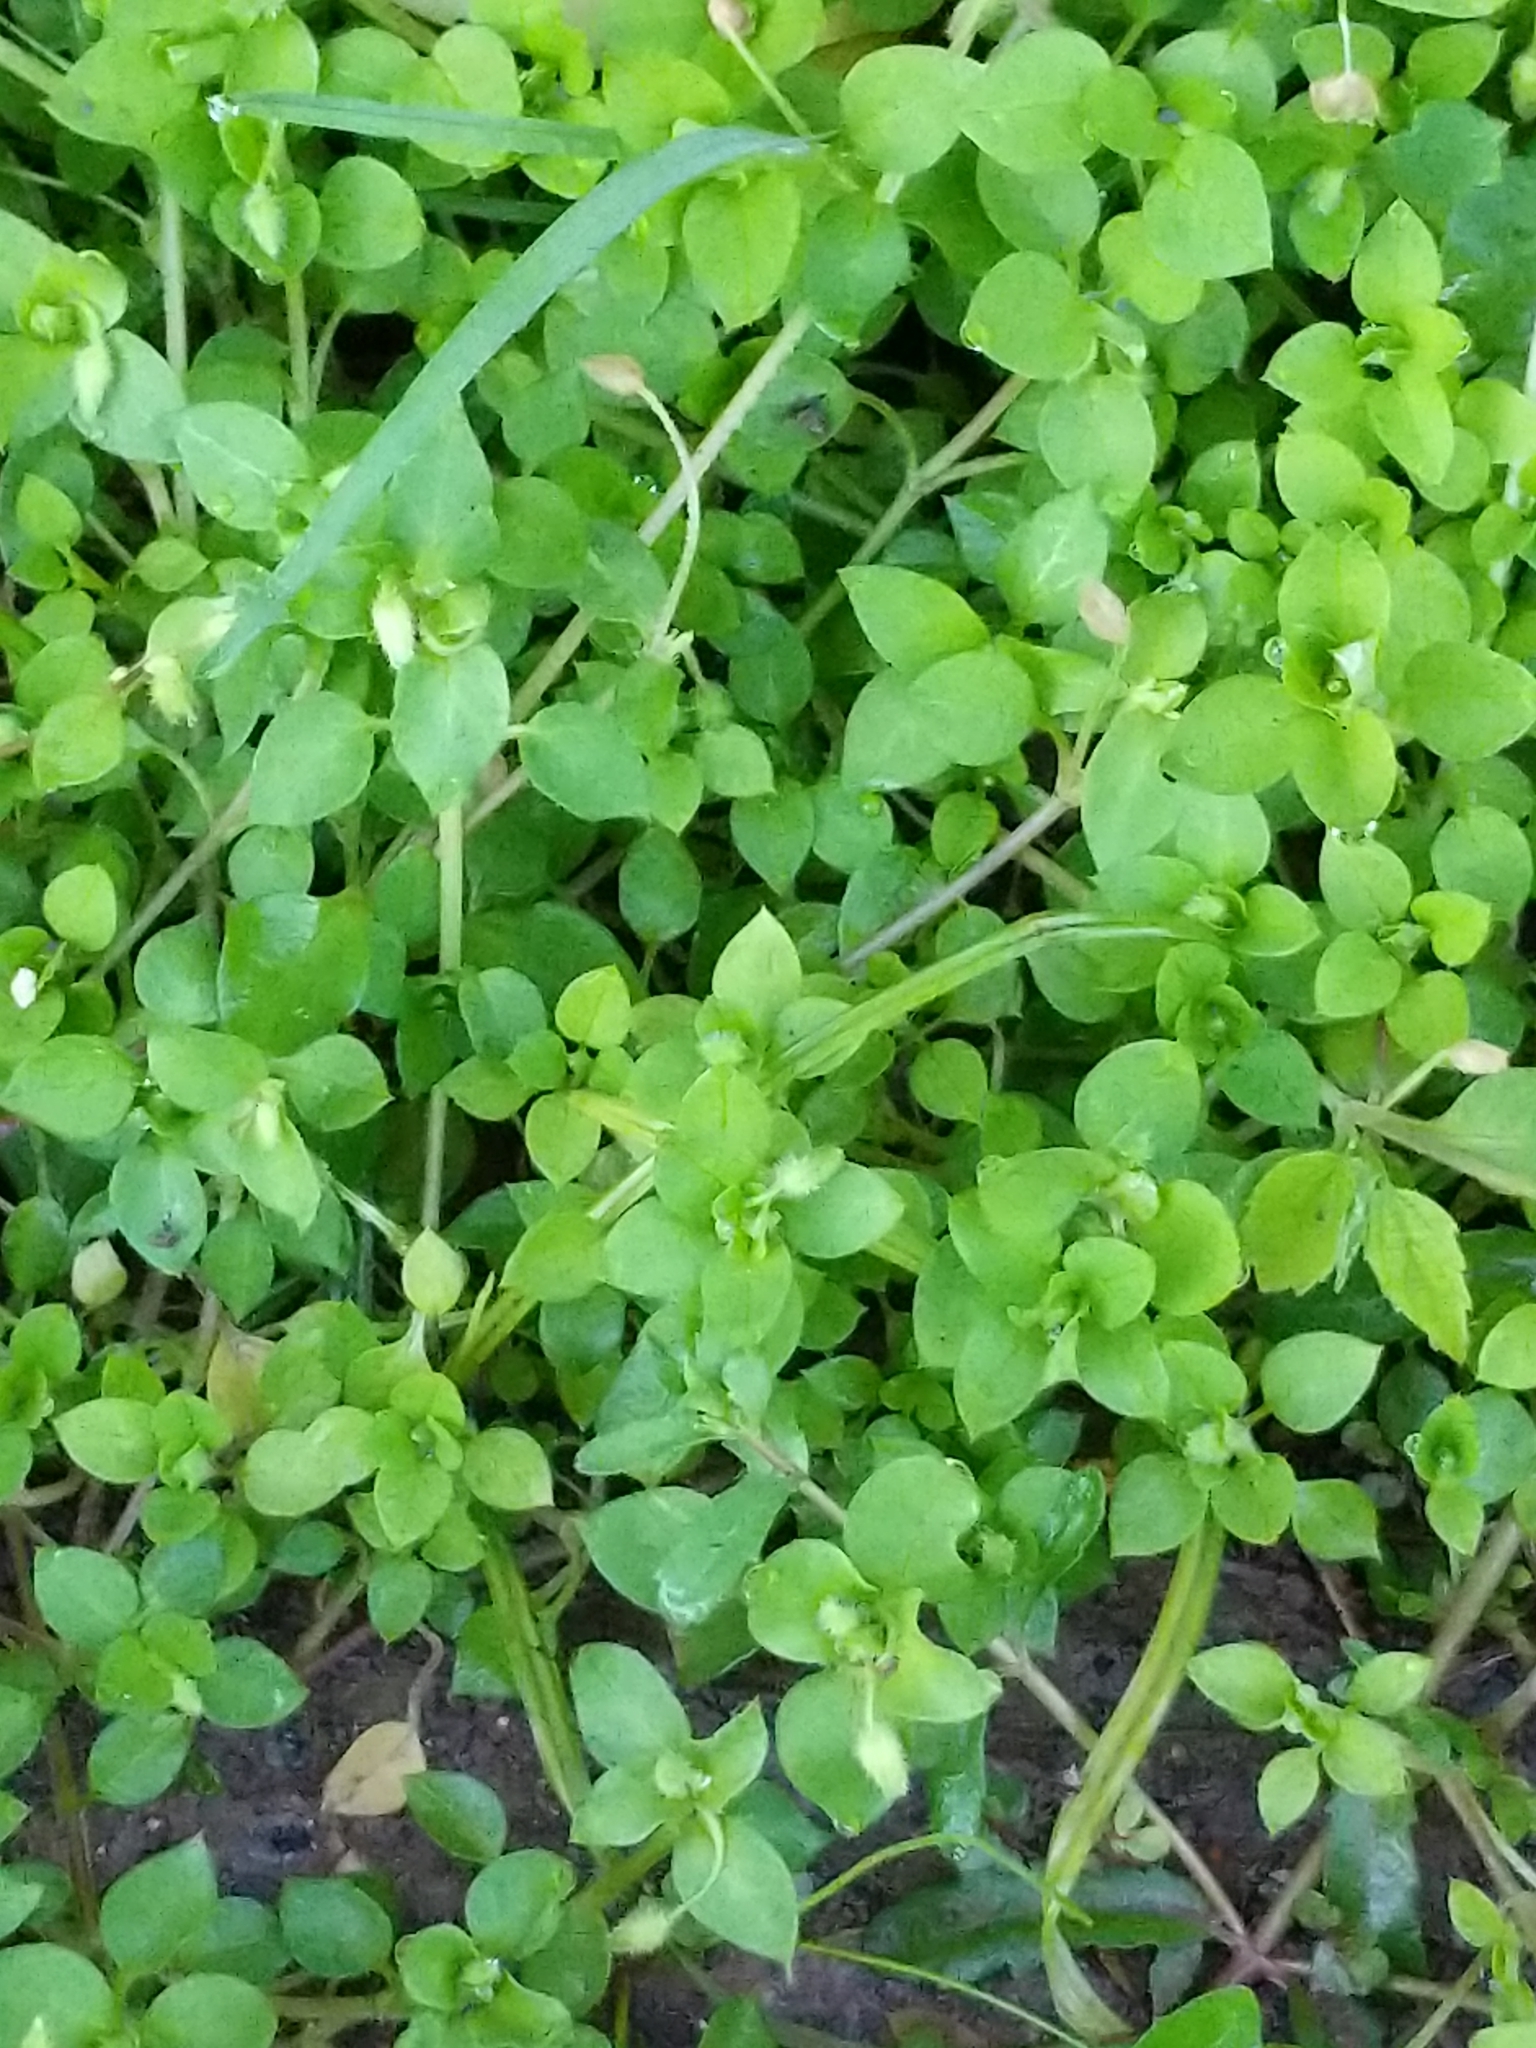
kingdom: Plantae
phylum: Tracheophyta
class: Magnoliopsida
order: Caryophyllales
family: Caryophyllaceae
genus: Stellaria
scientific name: Stellaria media
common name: Common chickweed
